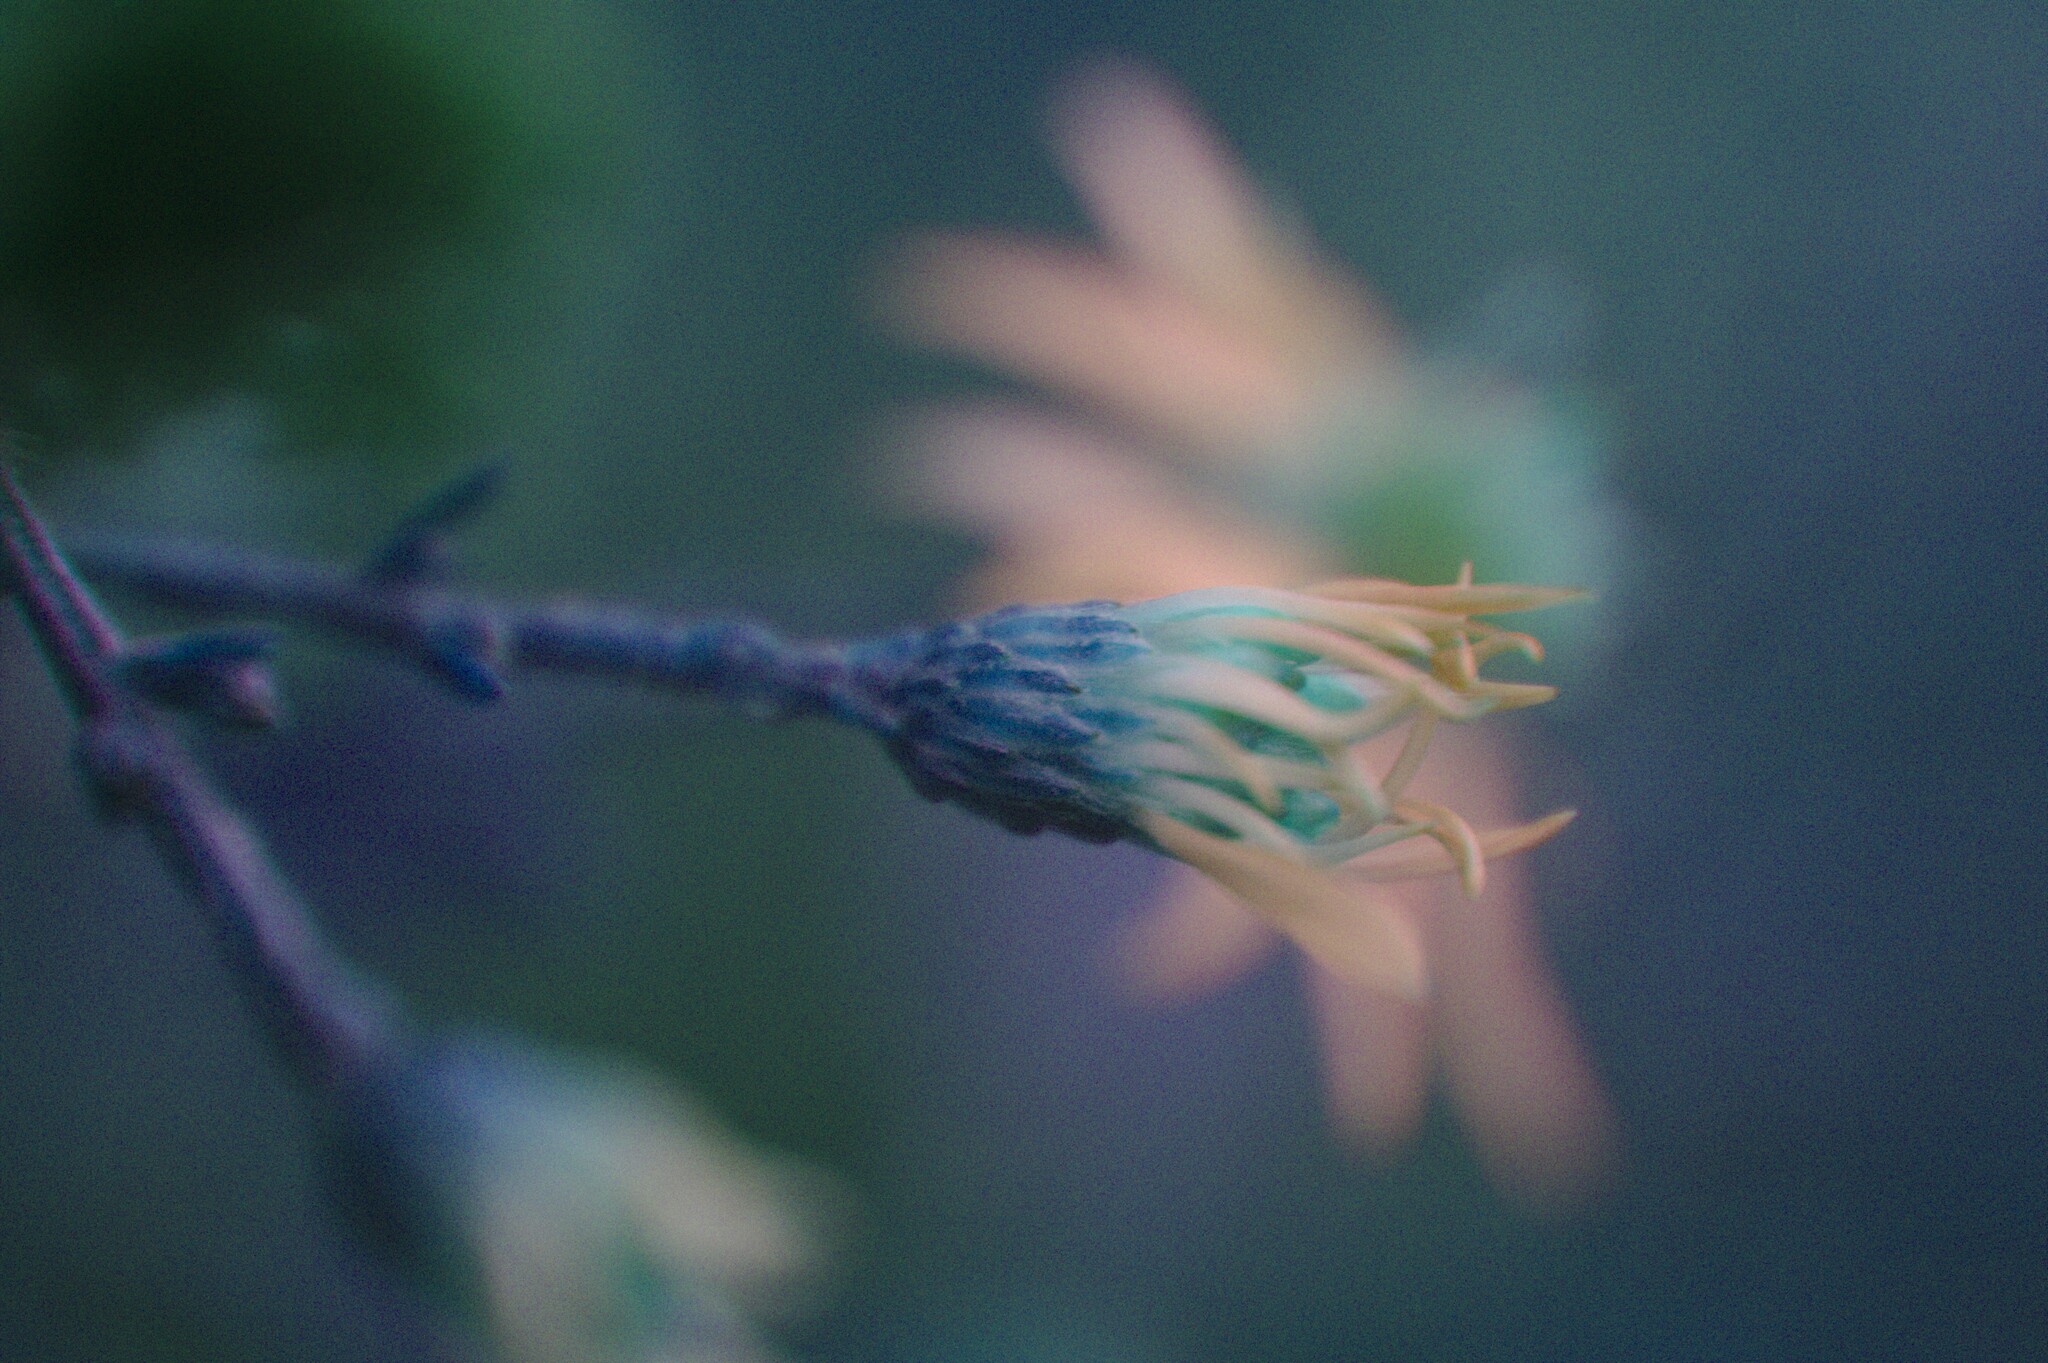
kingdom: Plantae
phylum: Tracheophyta
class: Magnoliopsida
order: Asterales
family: Asteraceae
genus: Symphyotrichum
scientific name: Symphyotrichum cordifolium
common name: Beeweed
